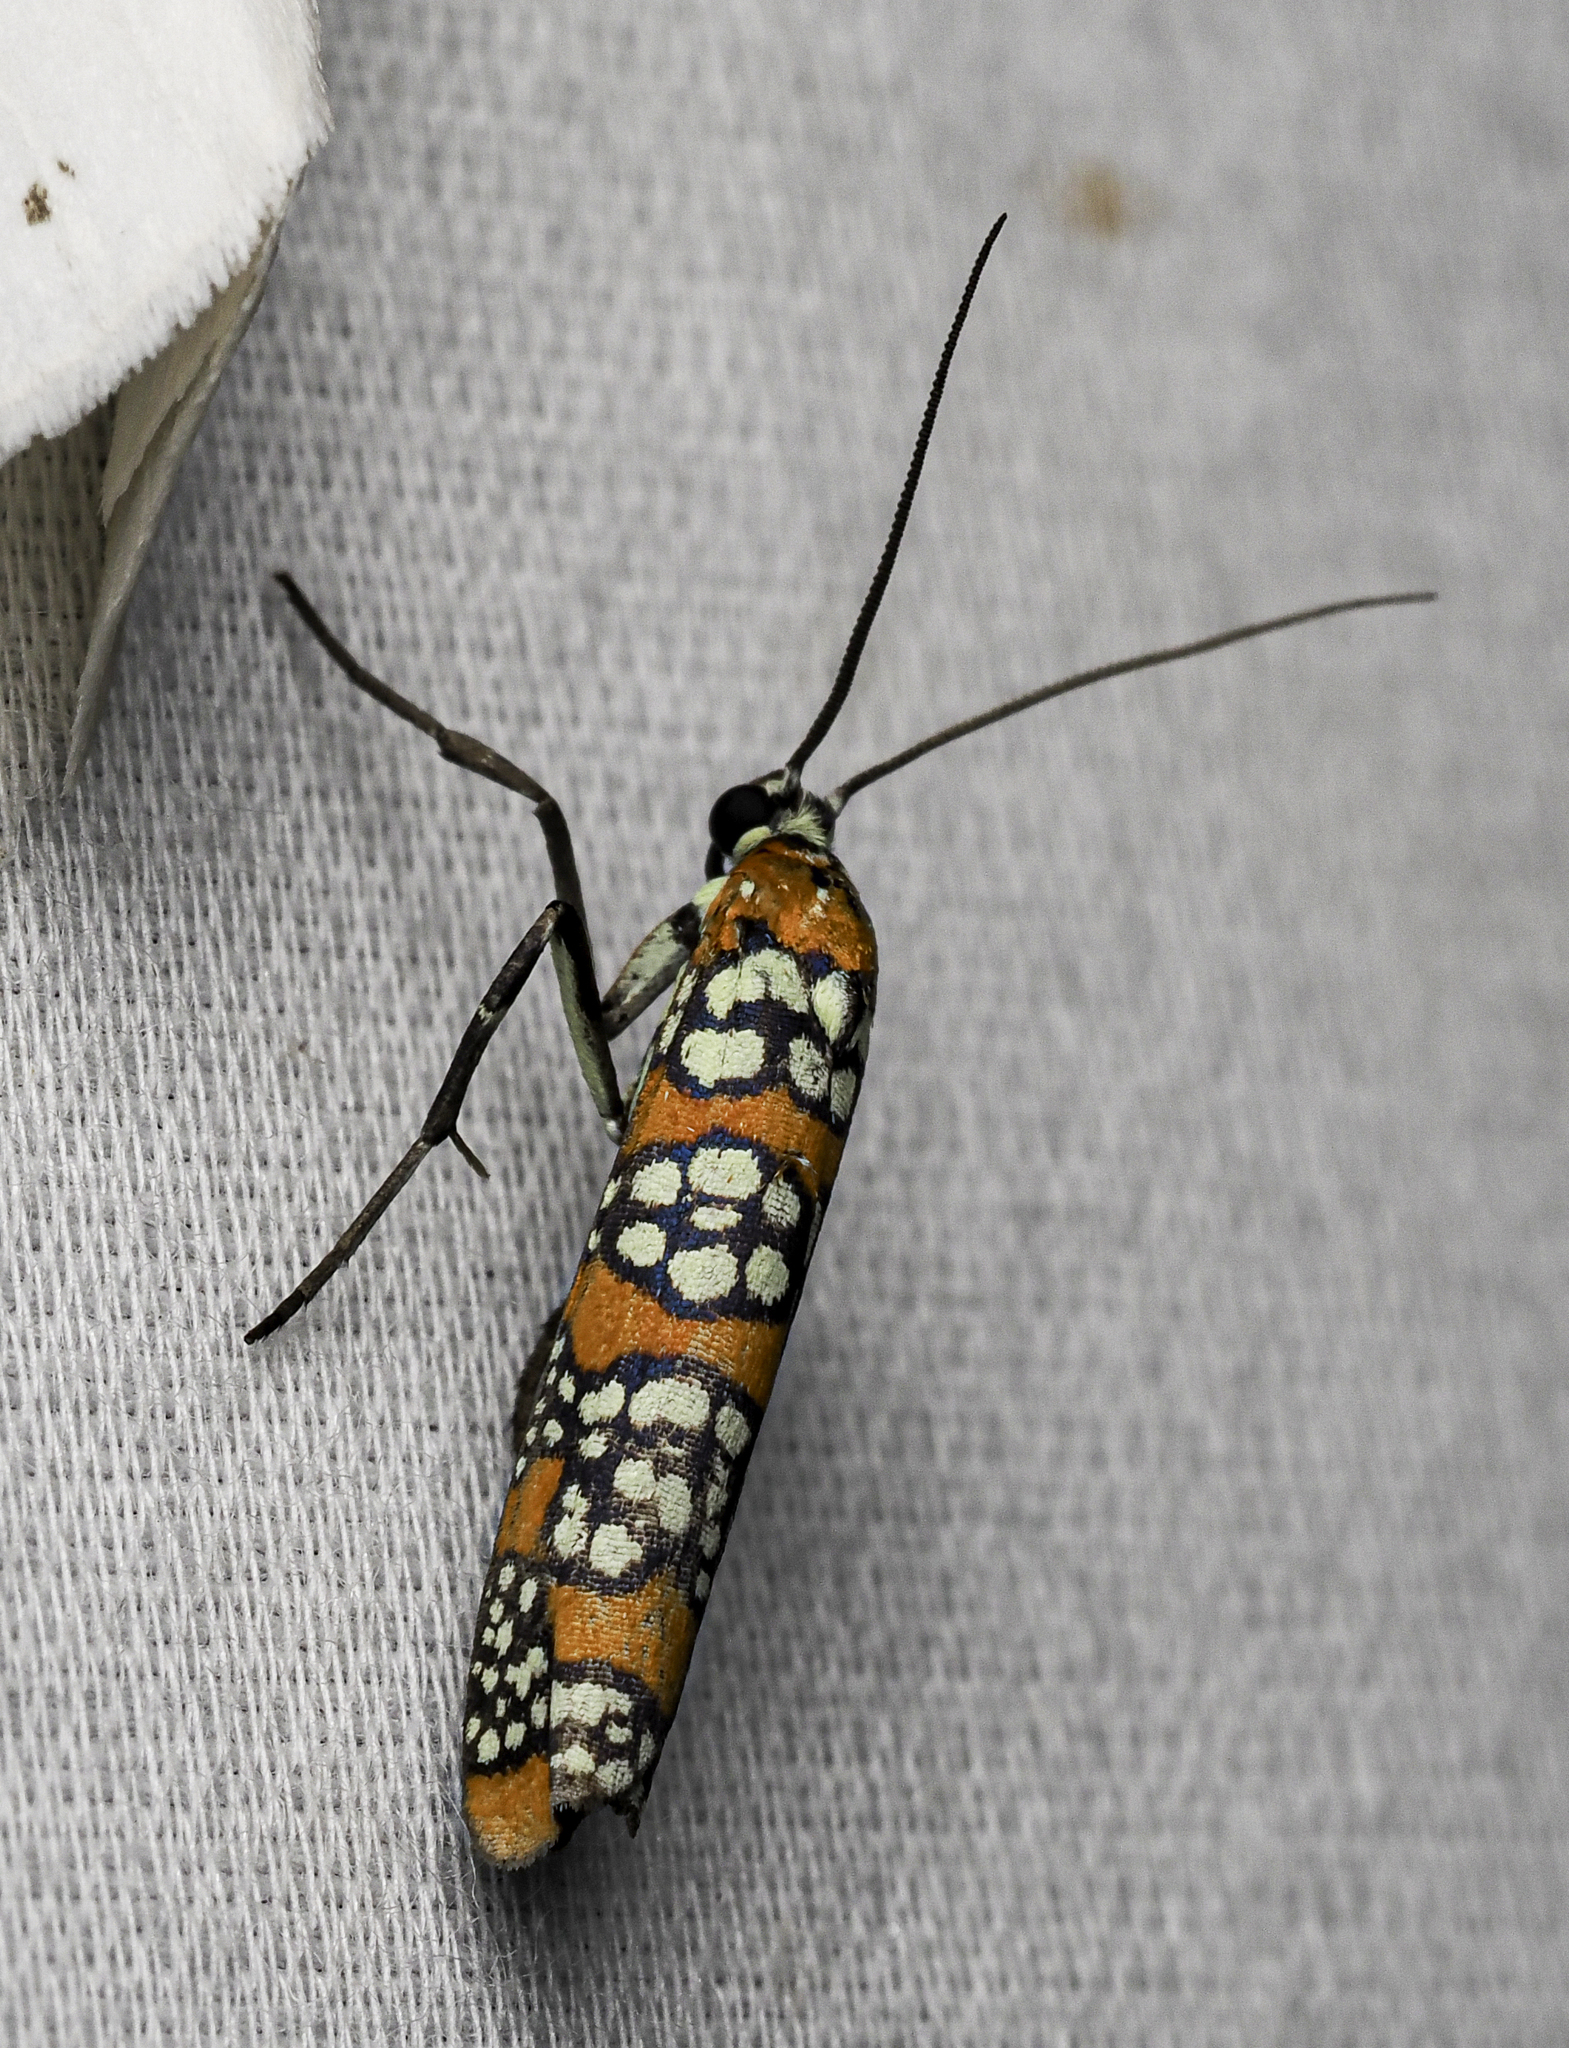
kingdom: Animalia
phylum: Arthropoda
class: Insecta
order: Lepidoptera
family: Attevidae
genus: Atteva
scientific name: Atteva punctella
